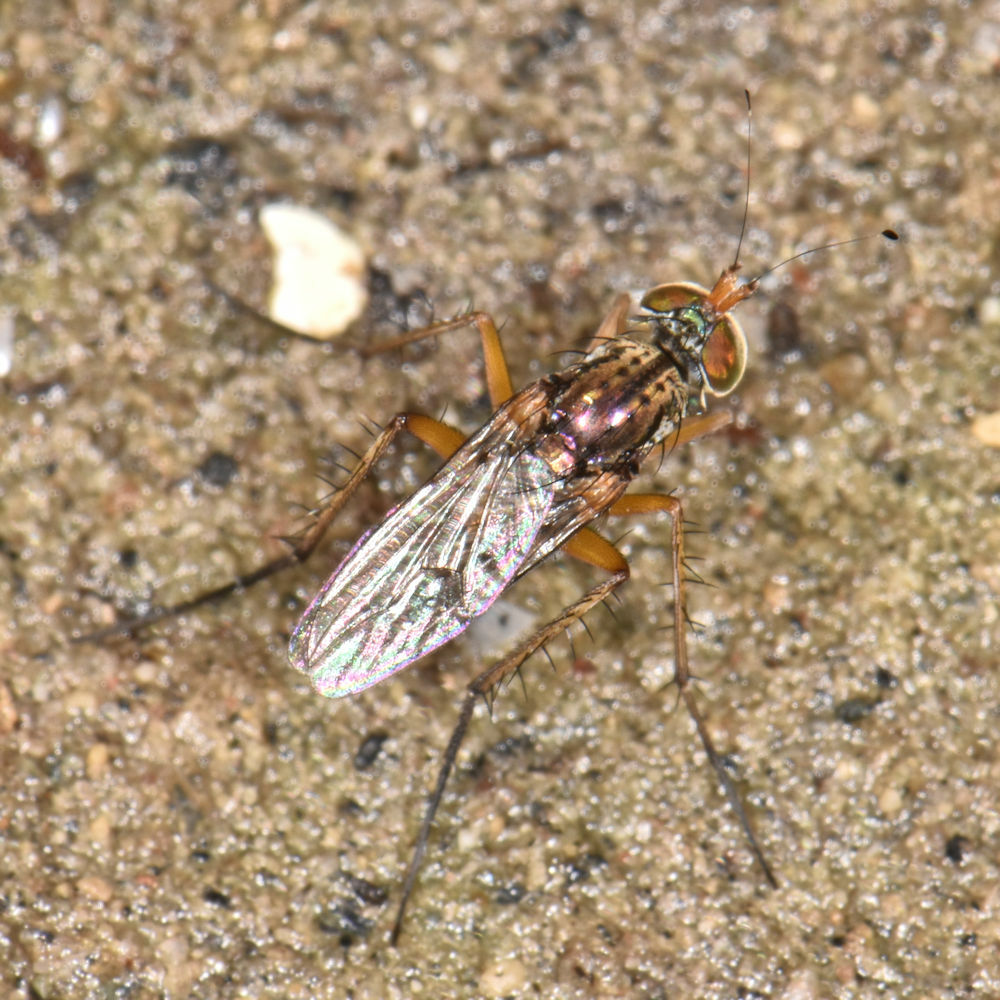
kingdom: Animalia
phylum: Arthropoda
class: Insecta
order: Diptera
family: Dolichopodidae
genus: Tachytrechus
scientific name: Tachytrechus moechus
